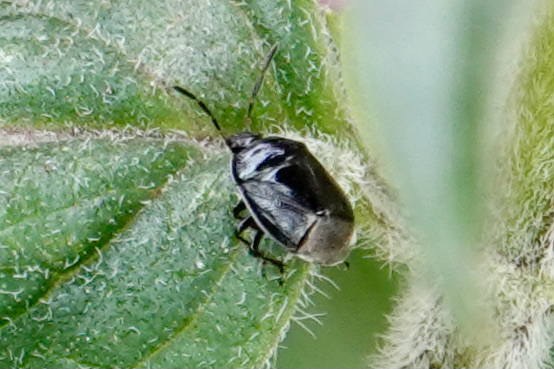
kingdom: Animalia
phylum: Arthropoda
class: Insecta
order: Hemiptera
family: Cydnidae
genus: Sehirus
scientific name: Sehirus cinctus
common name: White-margined burrower bug
